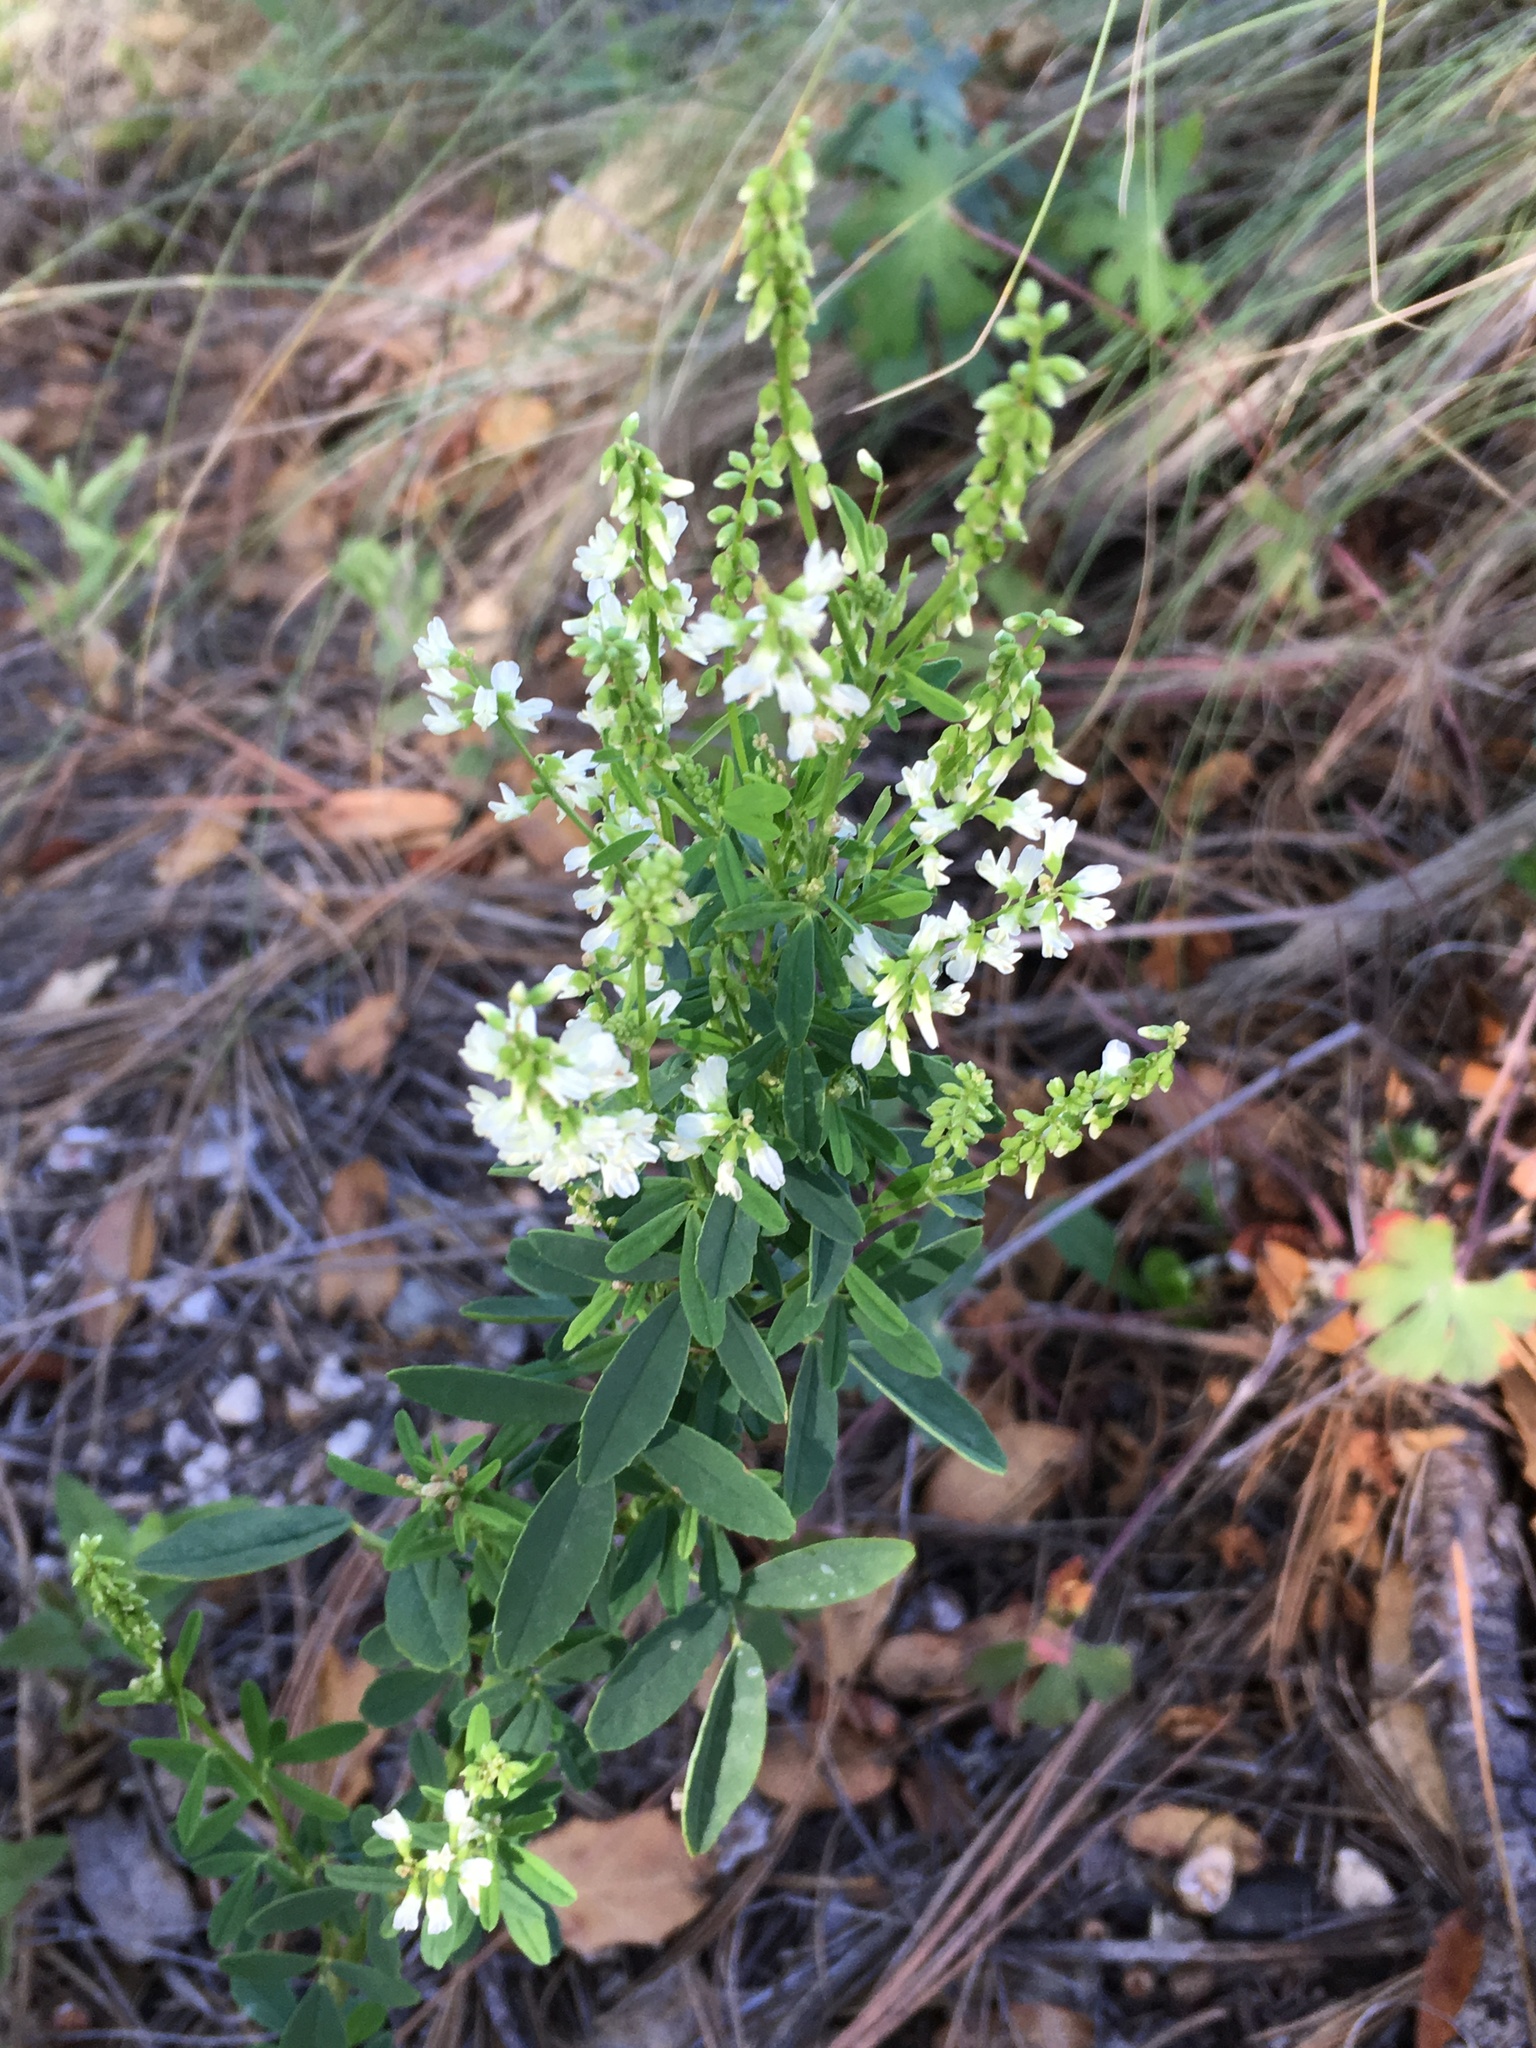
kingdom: Plantae
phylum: Tracheophyta
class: Magnoliopsida
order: Fabales
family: Fabaceae
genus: Melilotus
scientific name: Melilotus albus
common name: White melilot
